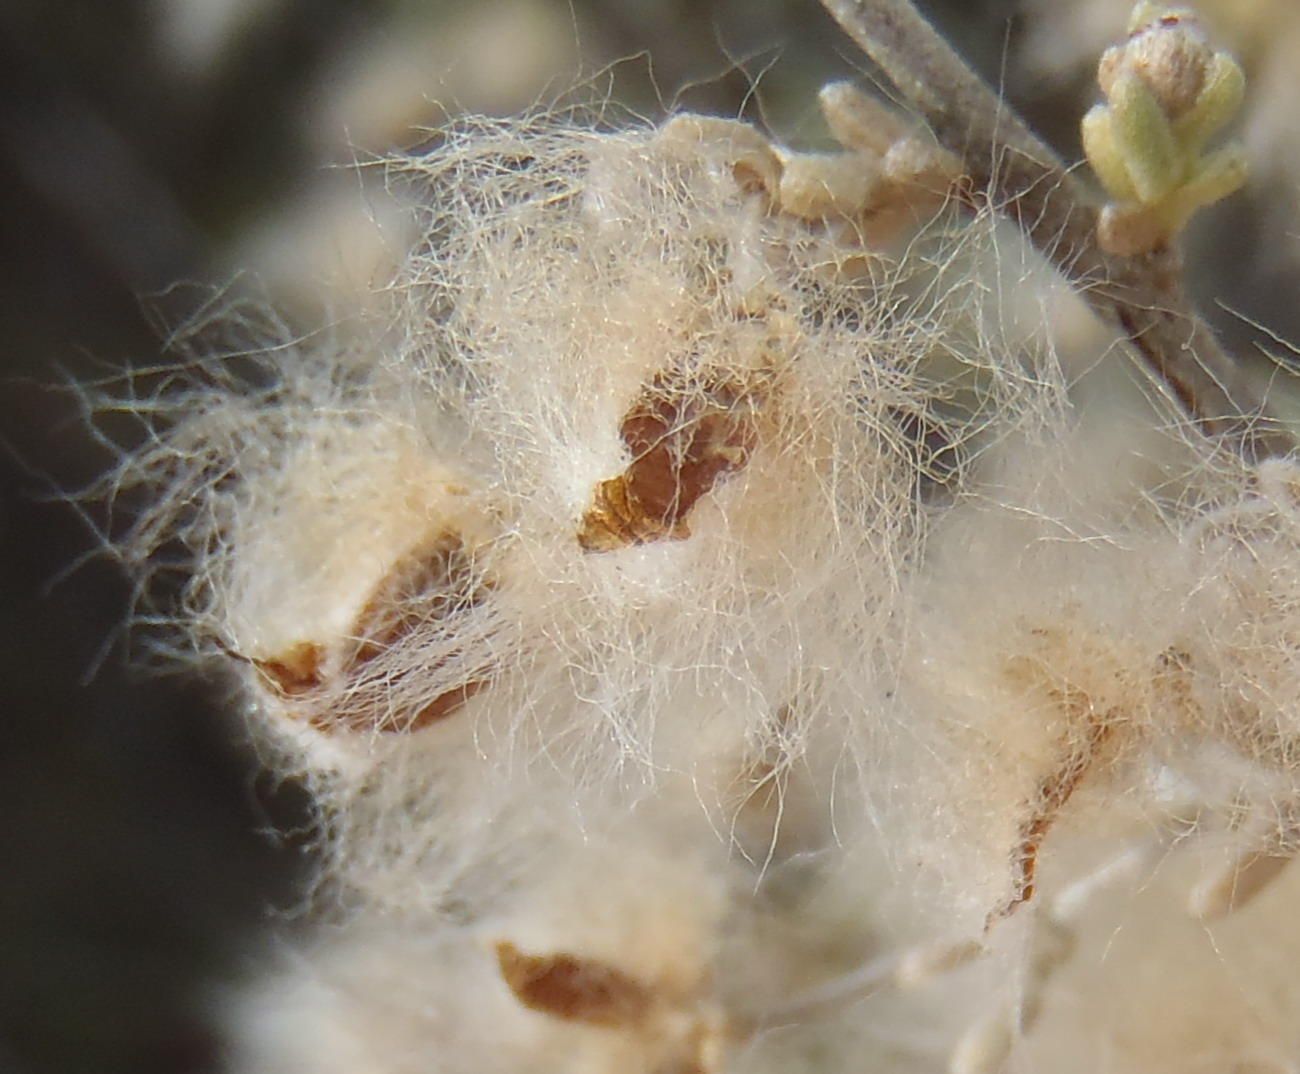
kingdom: Plantae
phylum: Tracheophyta
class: Magnoliopsida
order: Asterales
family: Asteraceae
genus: Eriocephalus
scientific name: Eriocephalus brevifolius
